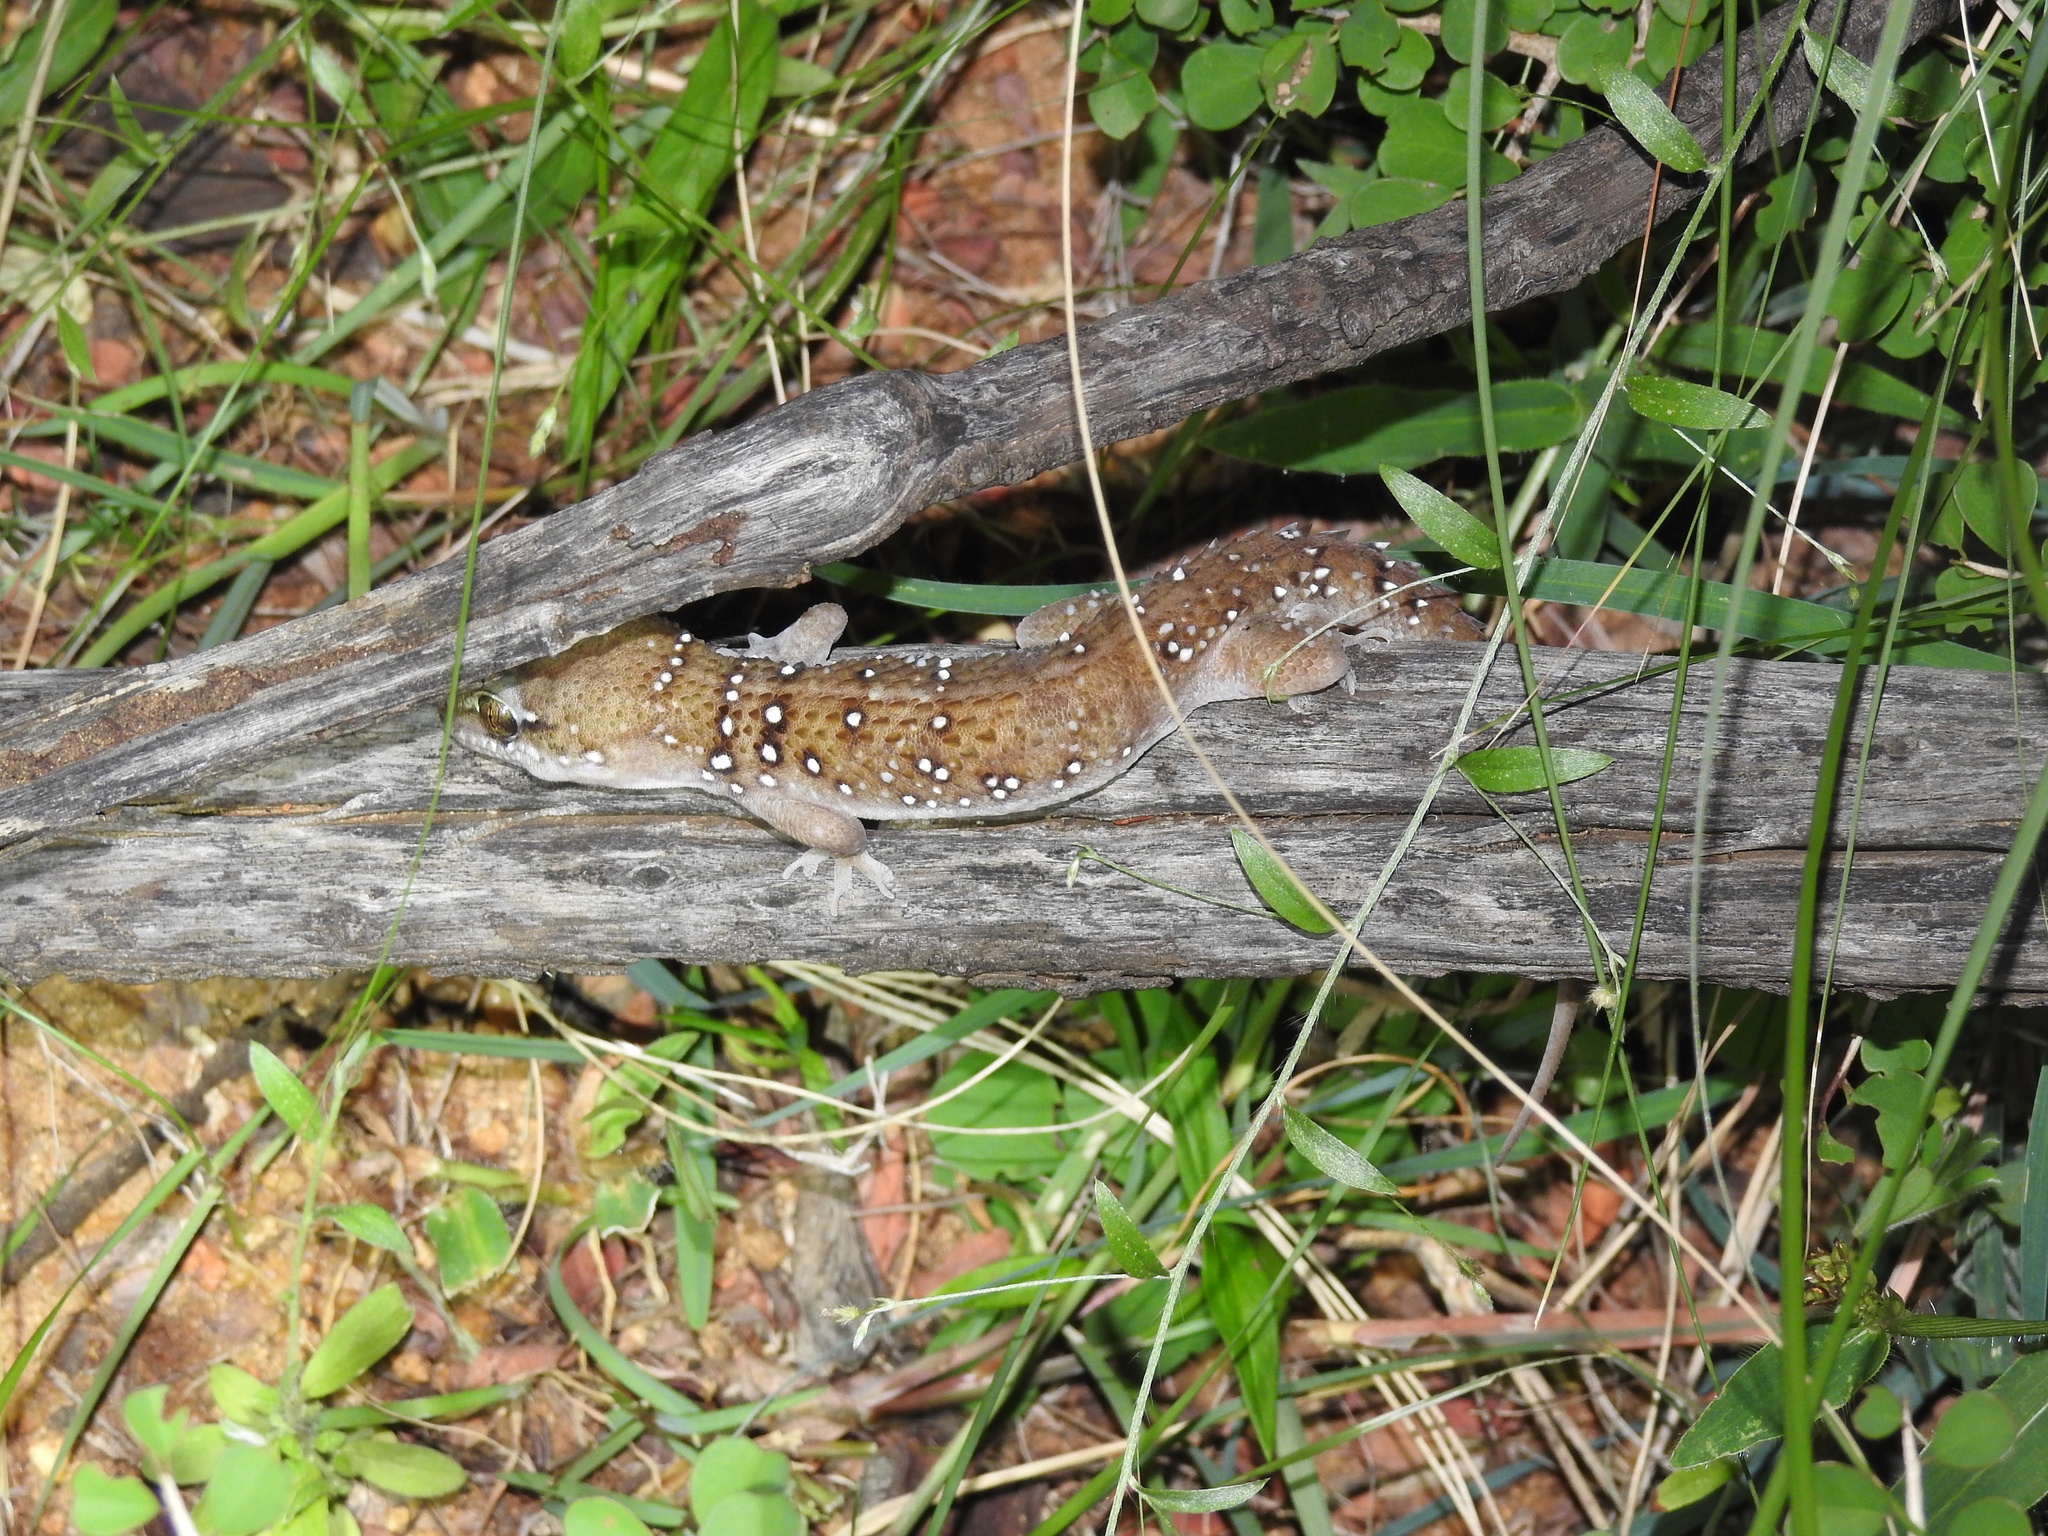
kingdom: Animalia
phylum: Chordata
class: Squamata
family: Gekkonidae
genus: Hemidactylus
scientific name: Hemidactylus whitakeri
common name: Whitaker’s termite hill gecko
